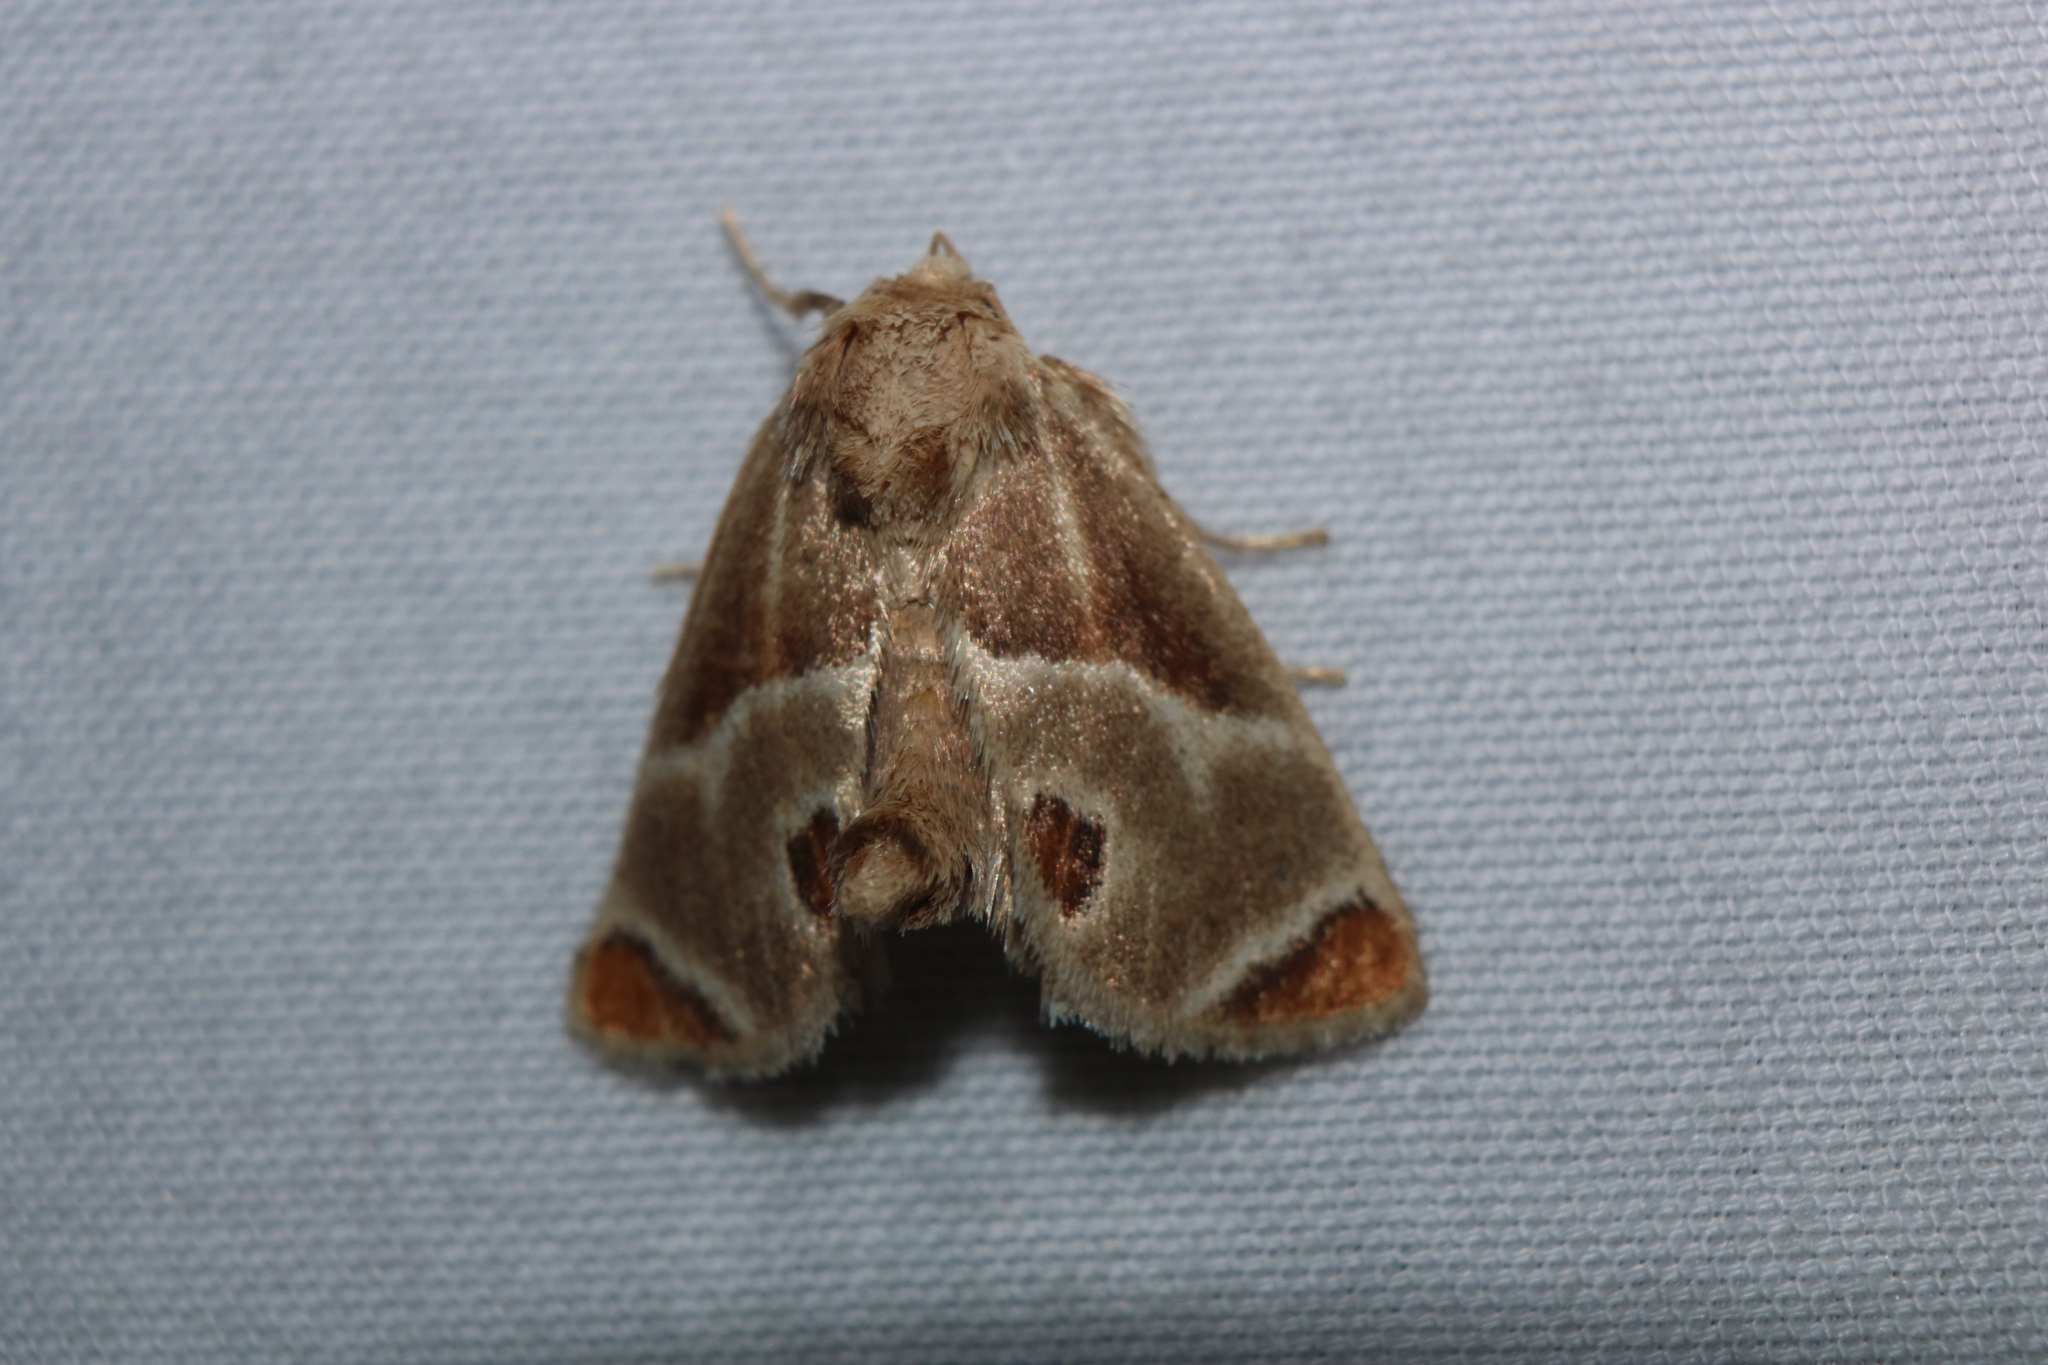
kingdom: Animalia
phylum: Arthropoda
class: Insecta
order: Lepidoptera
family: Limacodidae
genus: Apoda
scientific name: Apoda biguttata
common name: Shagreened slug moth
